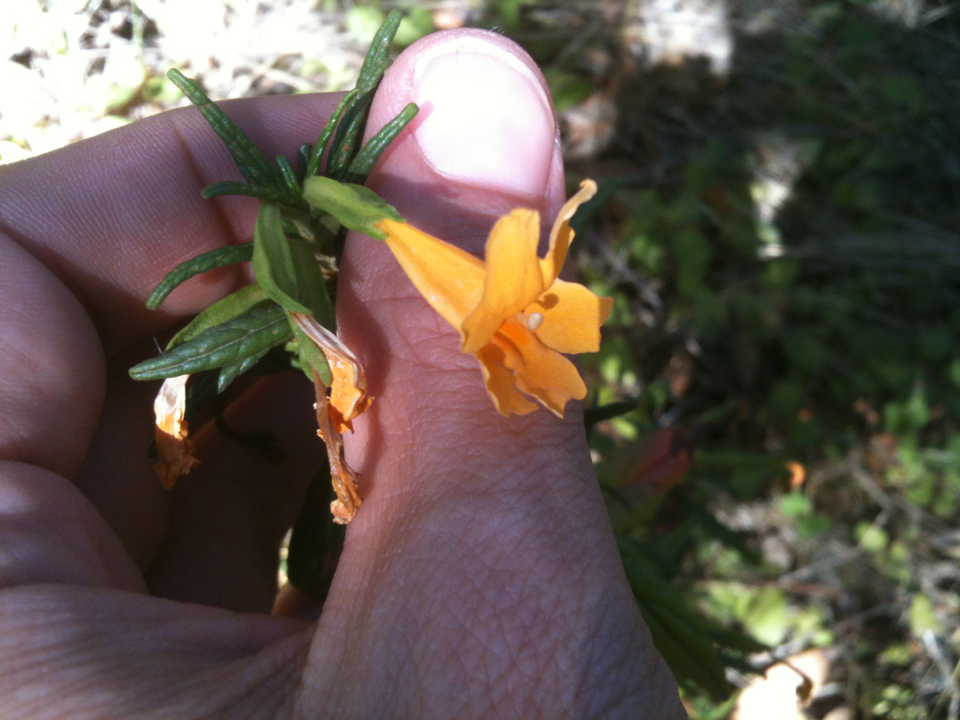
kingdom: Plantae
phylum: Tracheophyta
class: Magnoliopsida
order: Lamiales
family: Phrymaceae
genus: Diplacus
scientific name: Diplacus aurantiacus
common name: Bush monkey-flower
